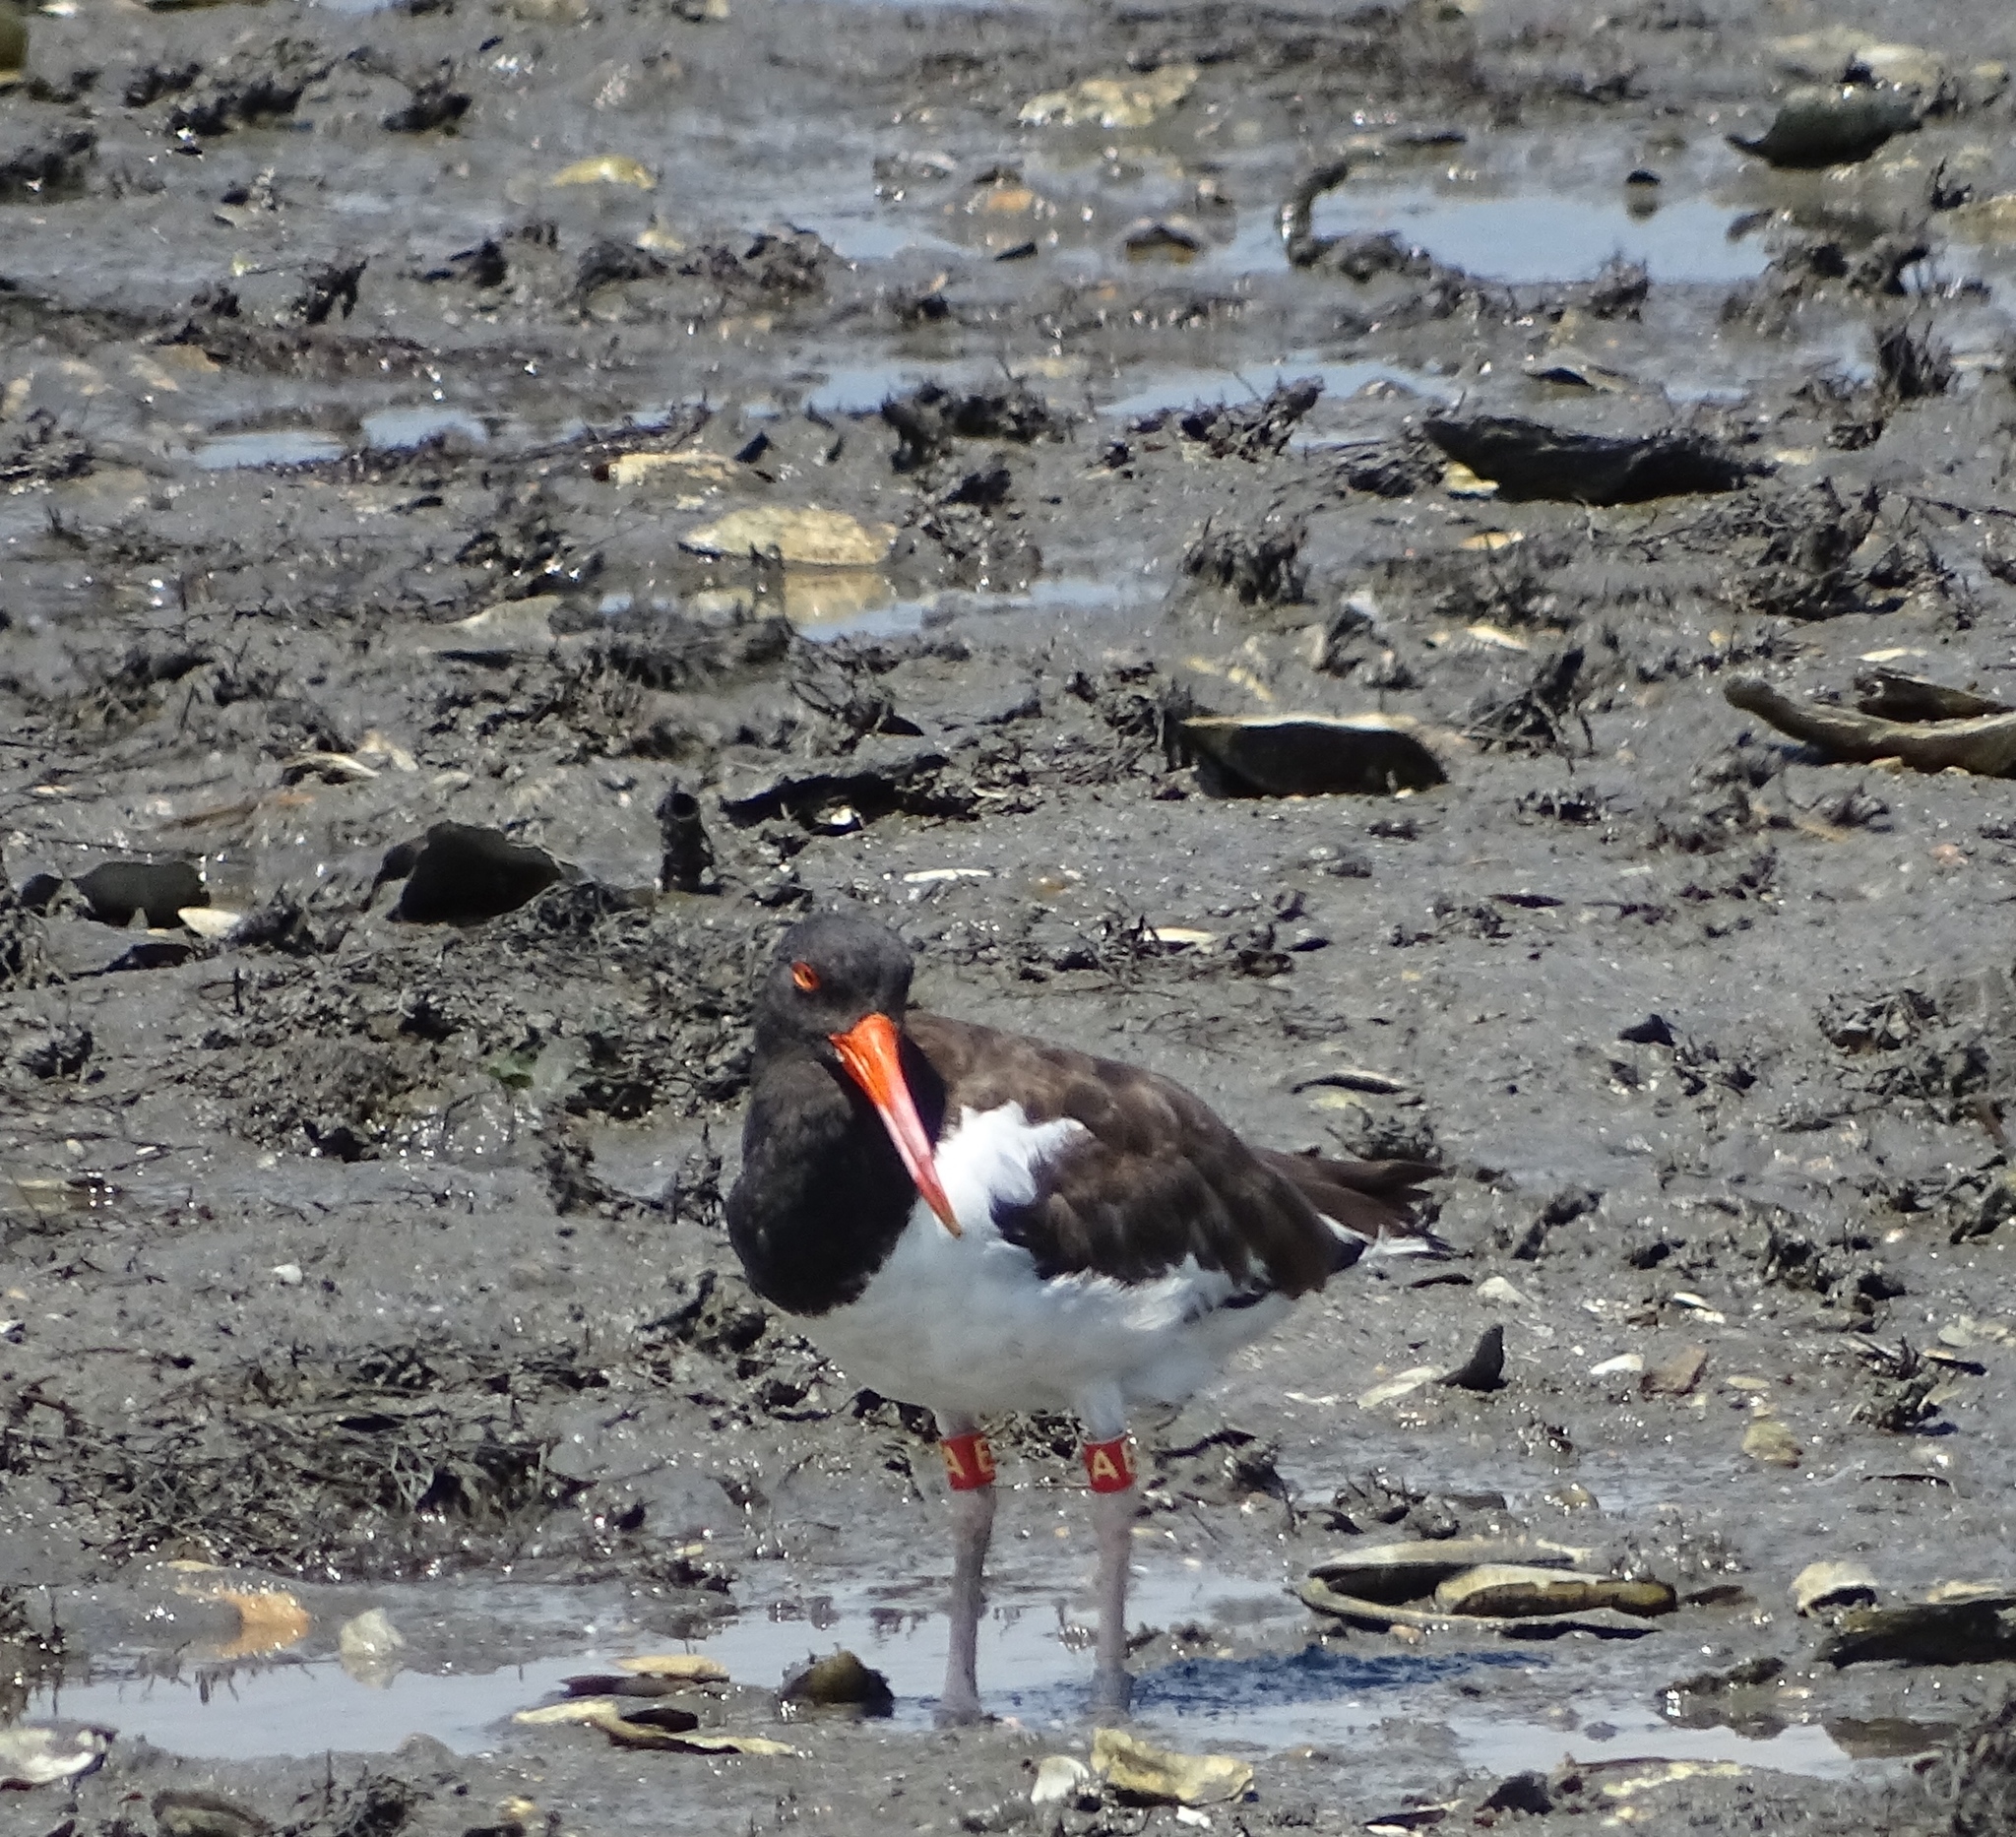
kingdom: Animalia
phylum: Chordata
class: Aves
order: Charadriiformes
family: Haematopodidae
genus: Haematopus
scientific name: Haematopus palliatus
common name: American oystercatcher
